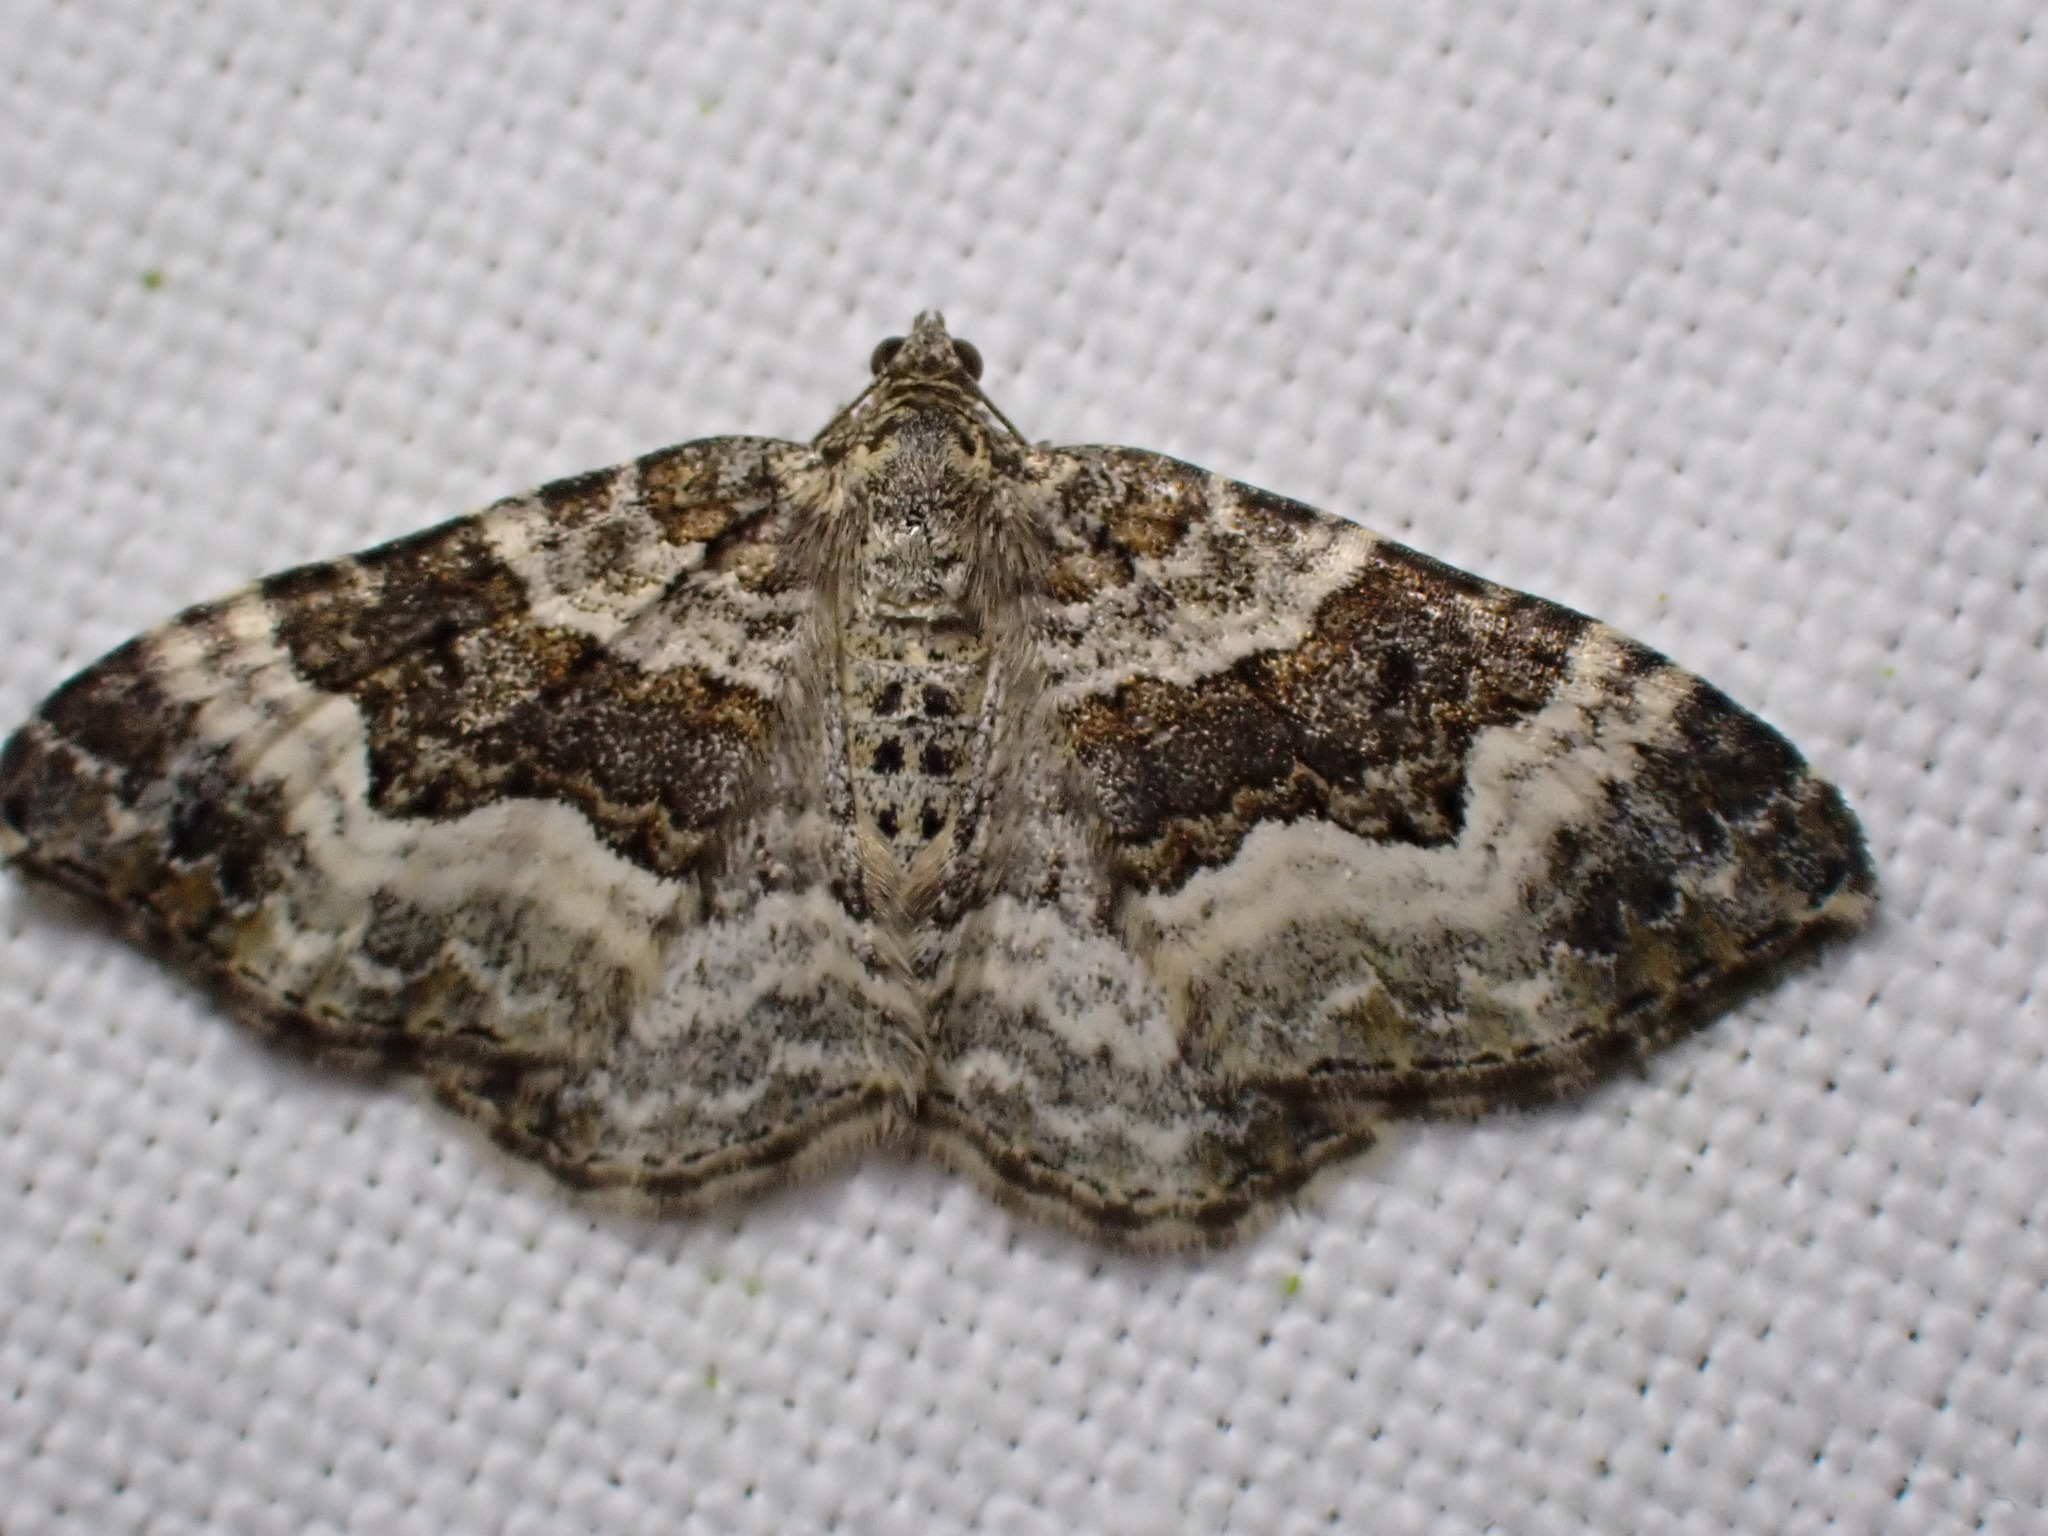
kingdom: Animalia
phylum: Arthropoda
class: Insecta
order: Lepidoptera
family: Geometridae
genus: Epirrhoe
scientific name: Epirrhoe alternata
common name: Common carpet
